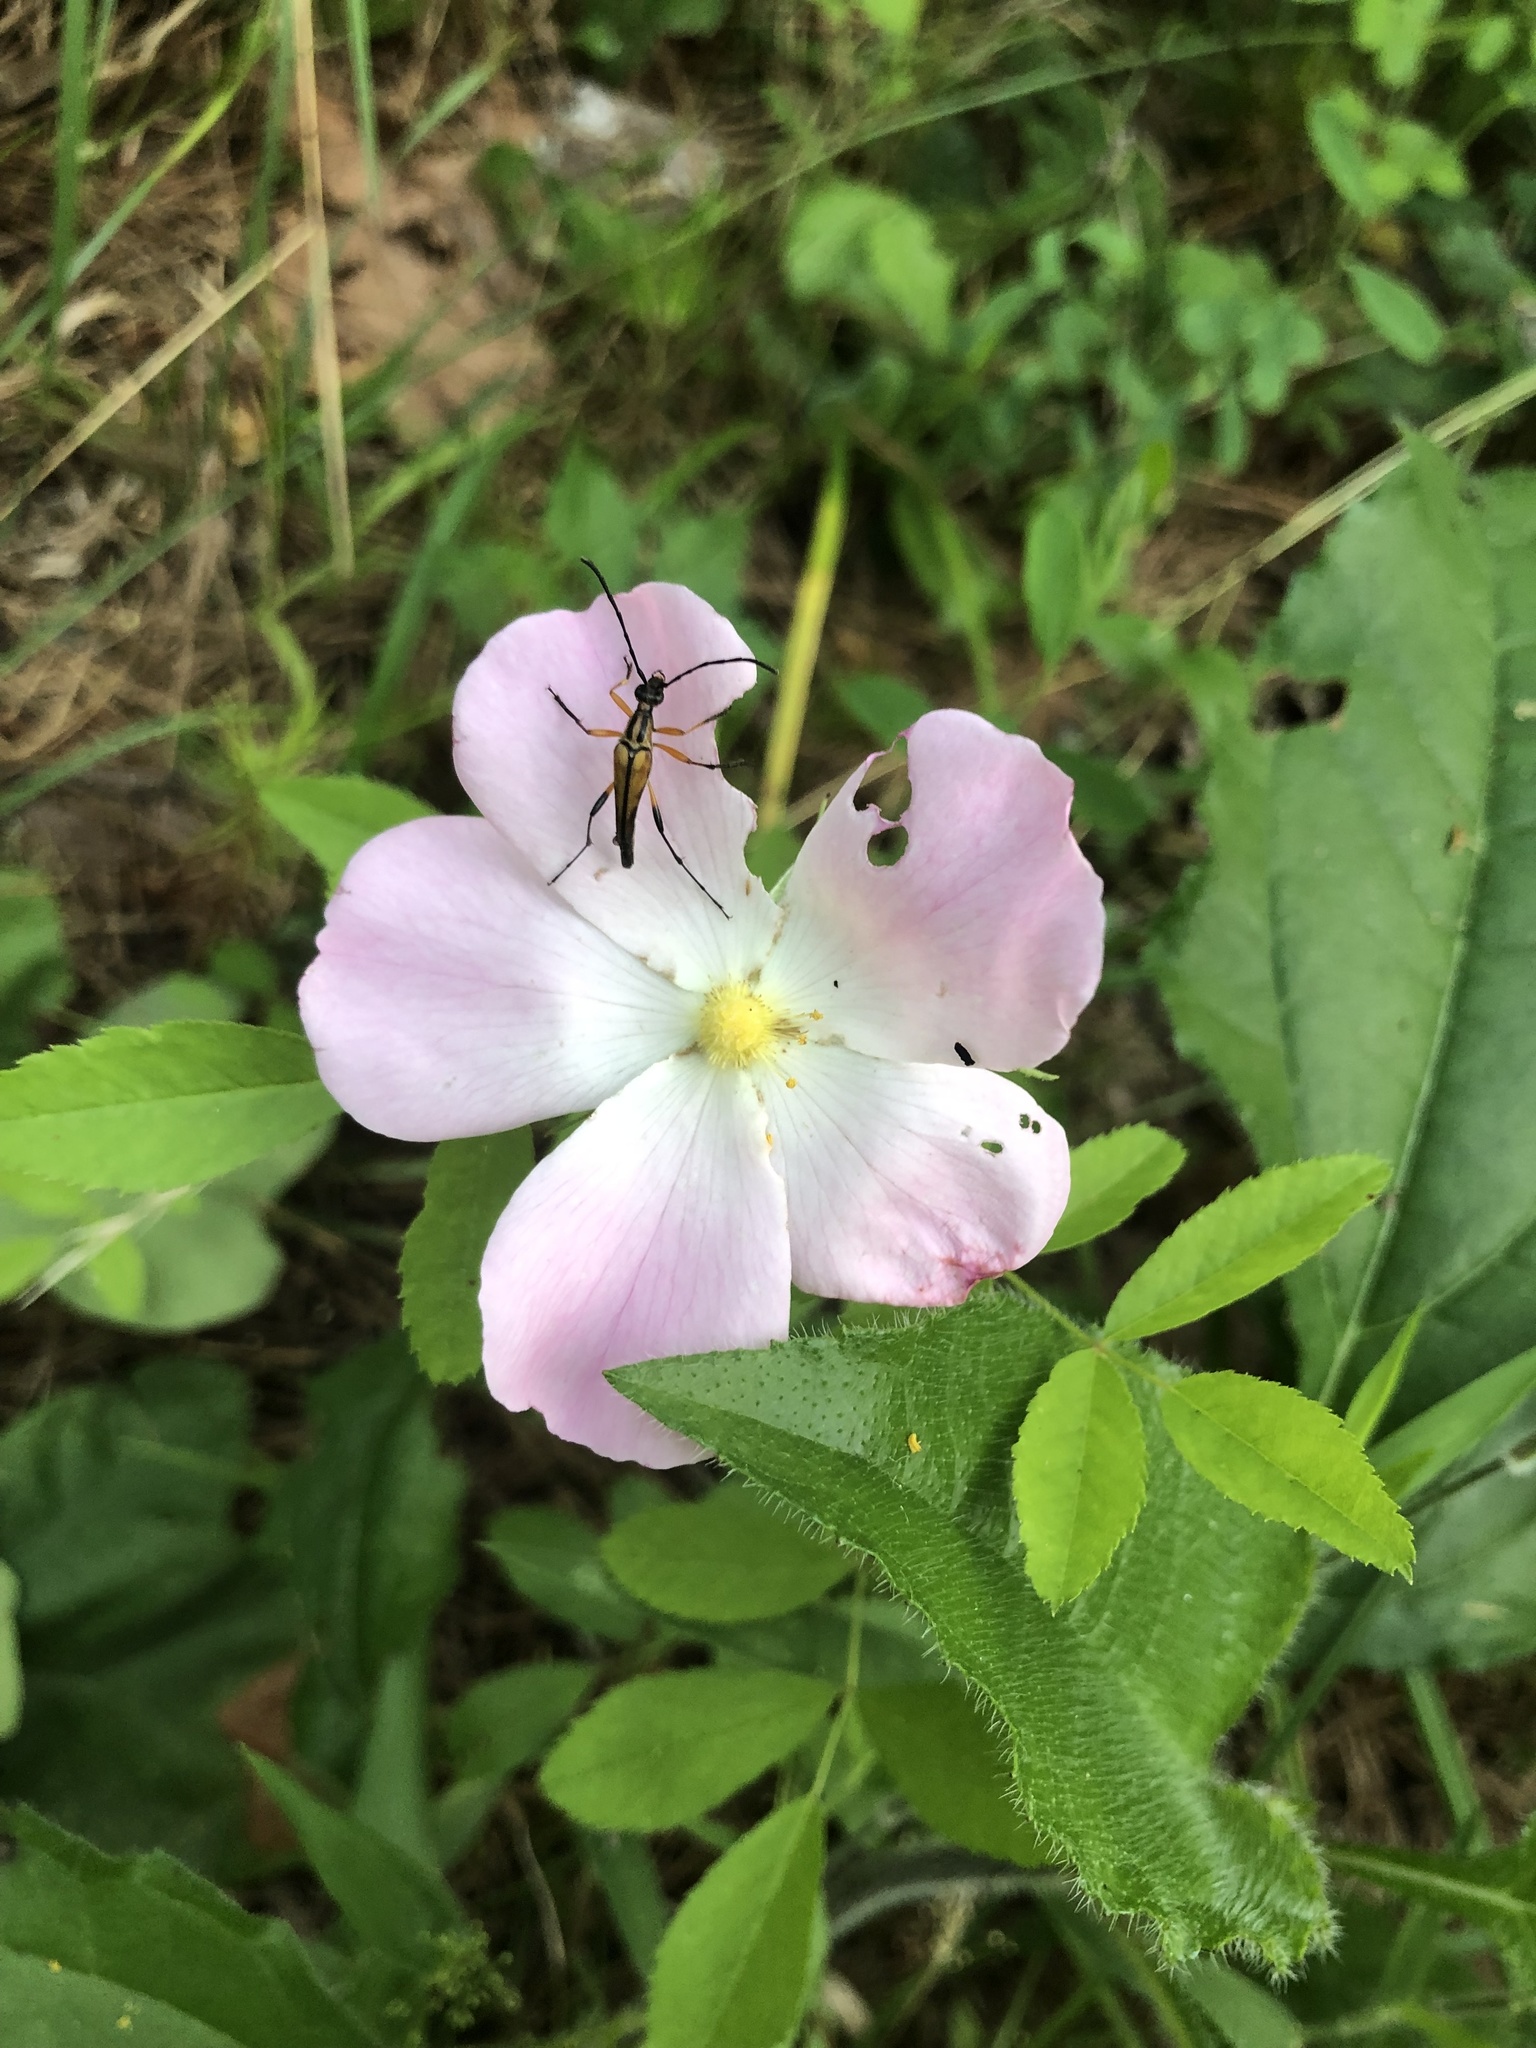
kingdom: Plantae
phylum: Tracheophyta
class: Magnoliopsida
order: Rosales
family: Rosaceae
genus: Rosa
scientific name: Rosa carolina
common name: Pasture rose
